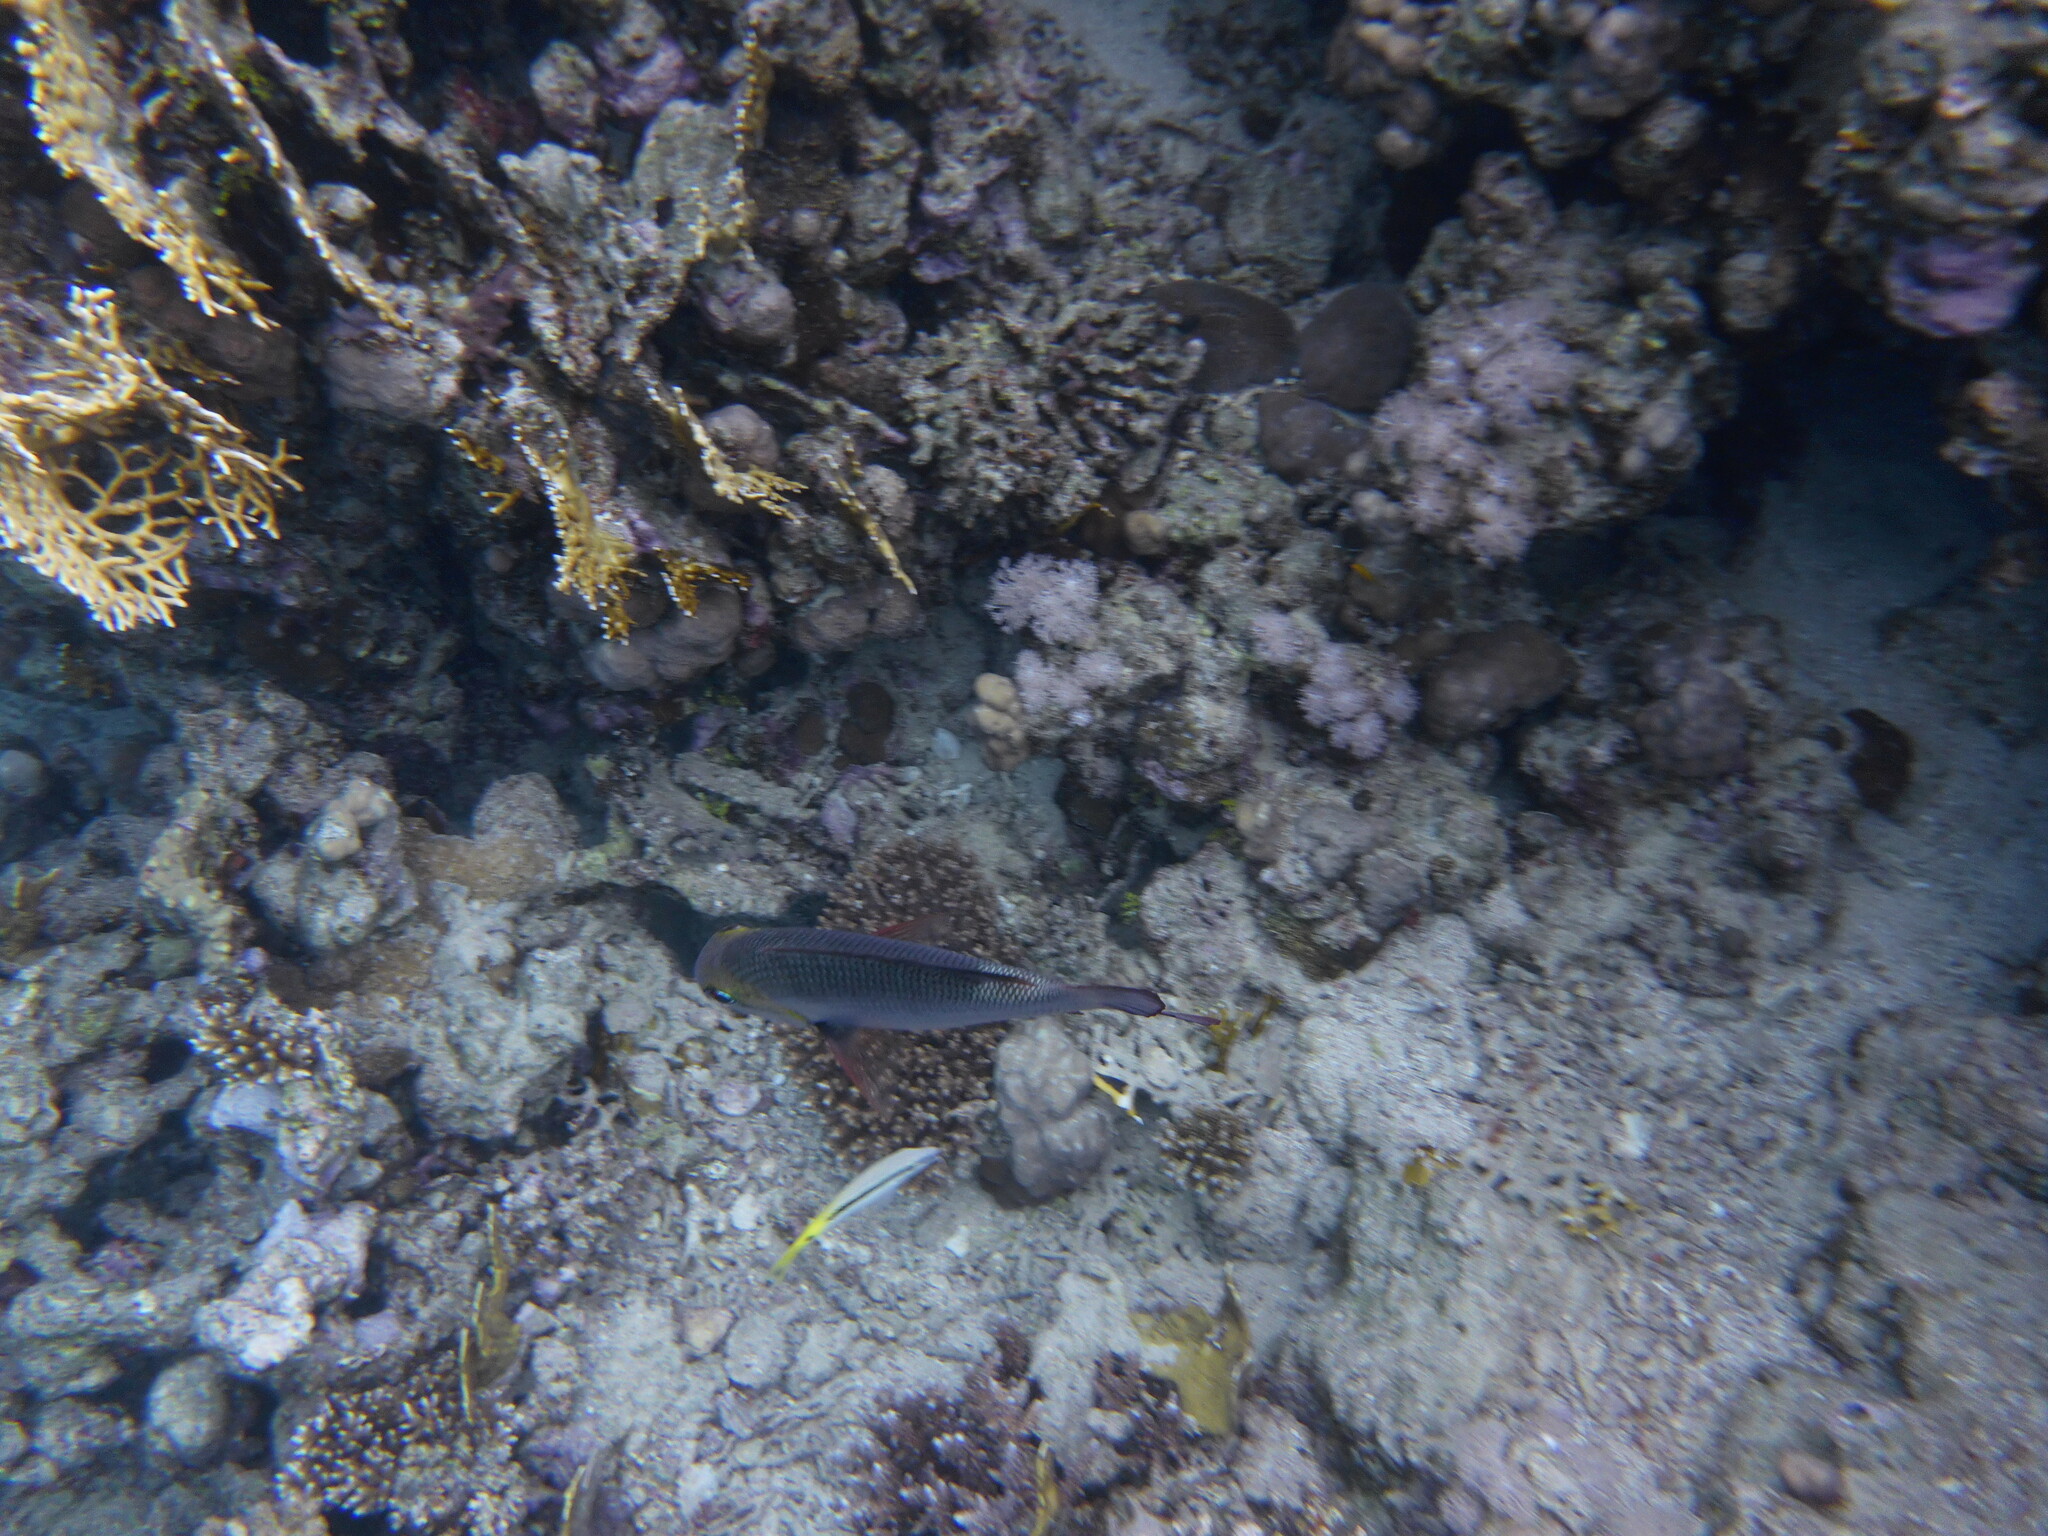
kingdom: Animalia
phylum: Chordata
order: Perciformes
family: Lethrinidae
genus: Monotaxis
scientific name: Monotaxis grandoculis
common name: Bigeye emperor
